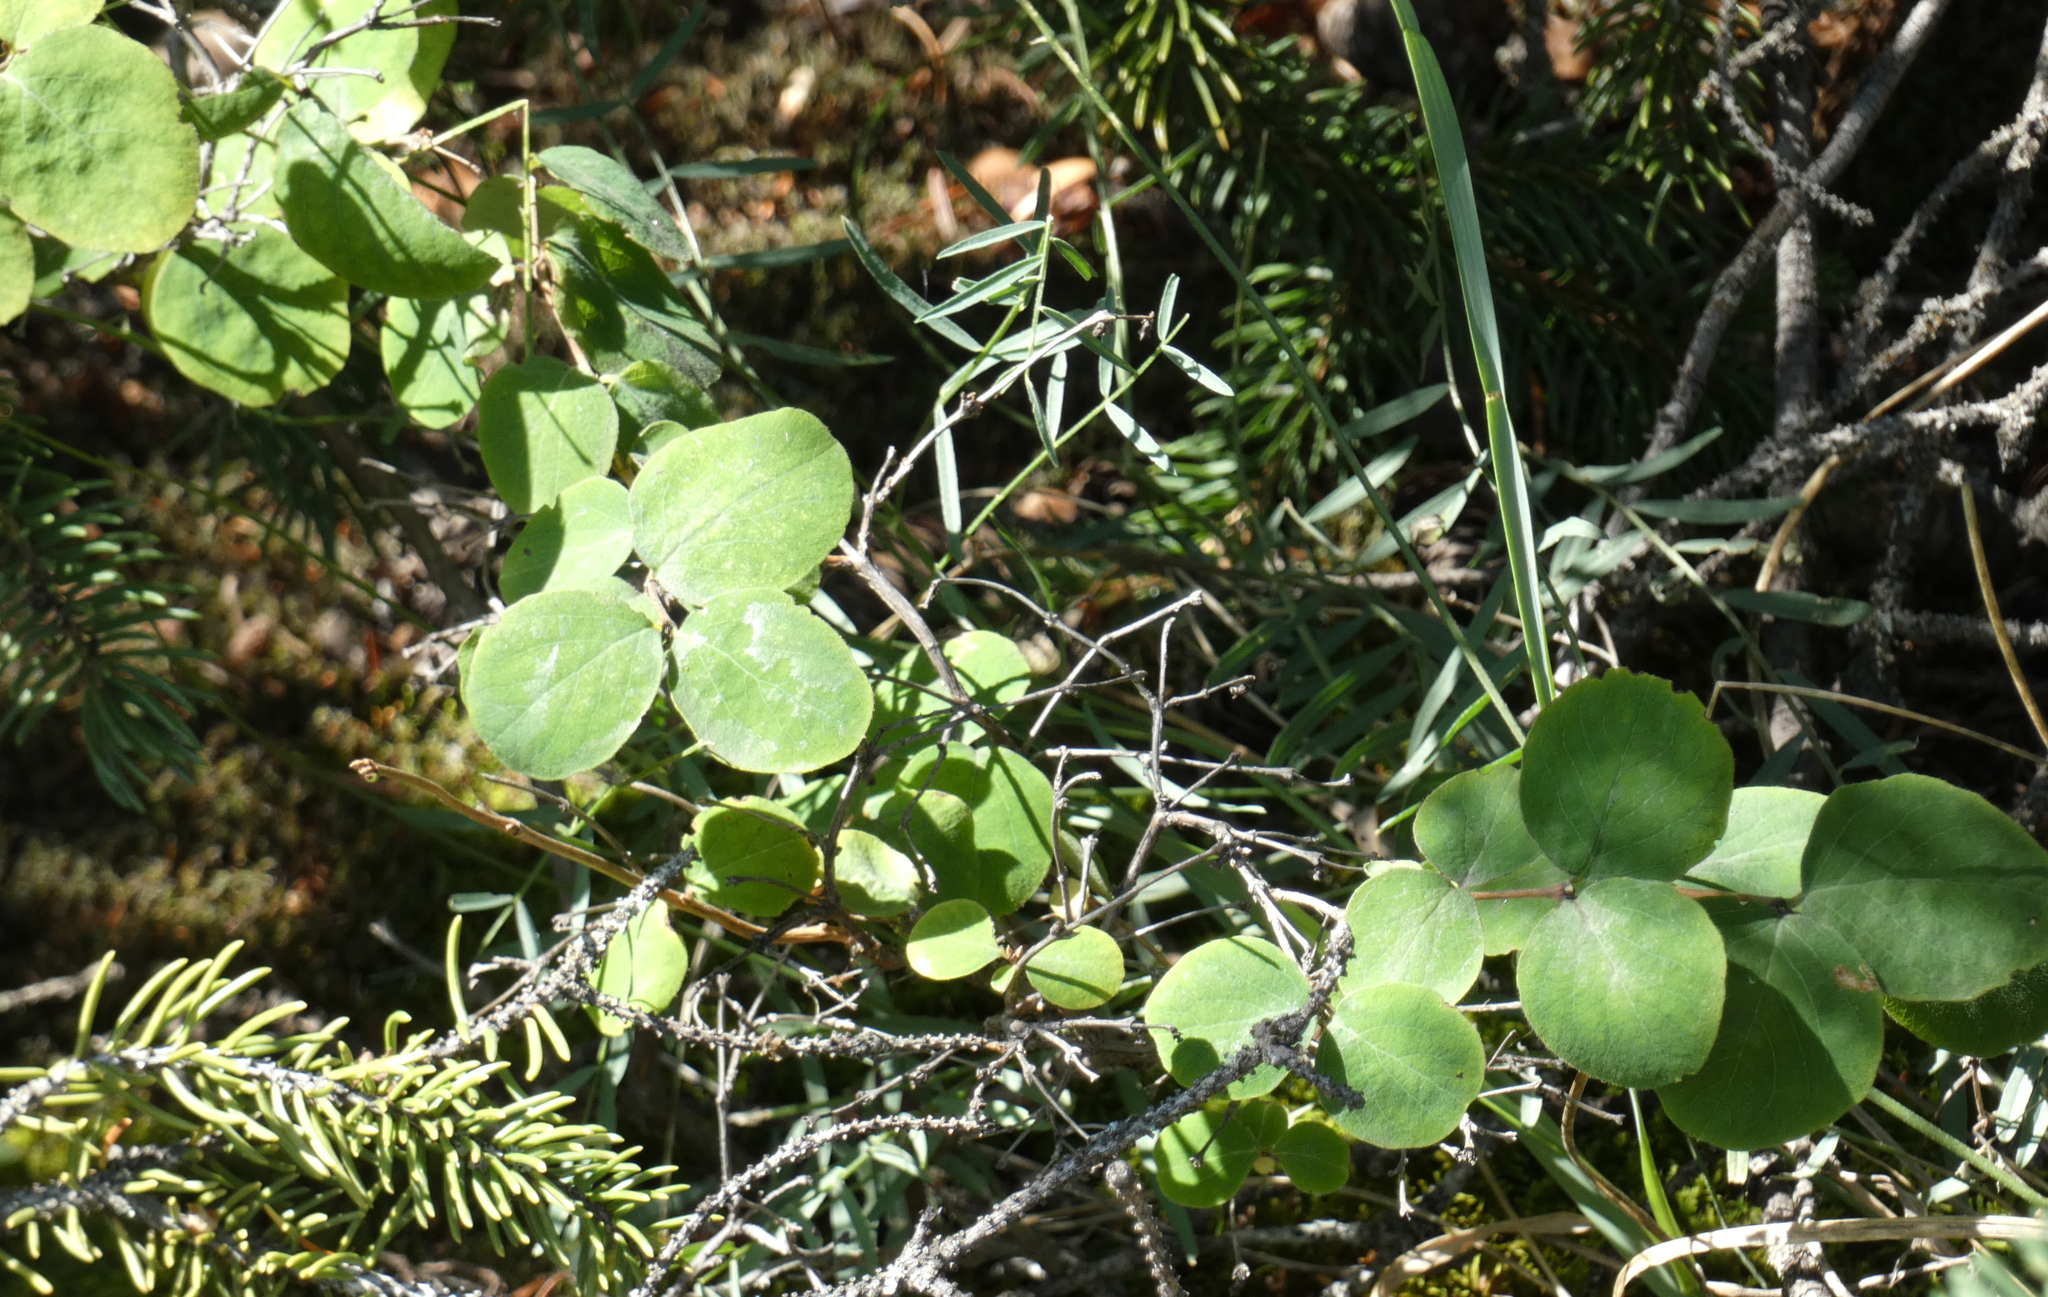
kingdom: Plantae
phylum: Tracheophyta
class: Magnoliopsida
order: Dipsacales
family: Caprifoliaceae
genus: Symphoricarpos
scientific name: Symphoricarpos albus
